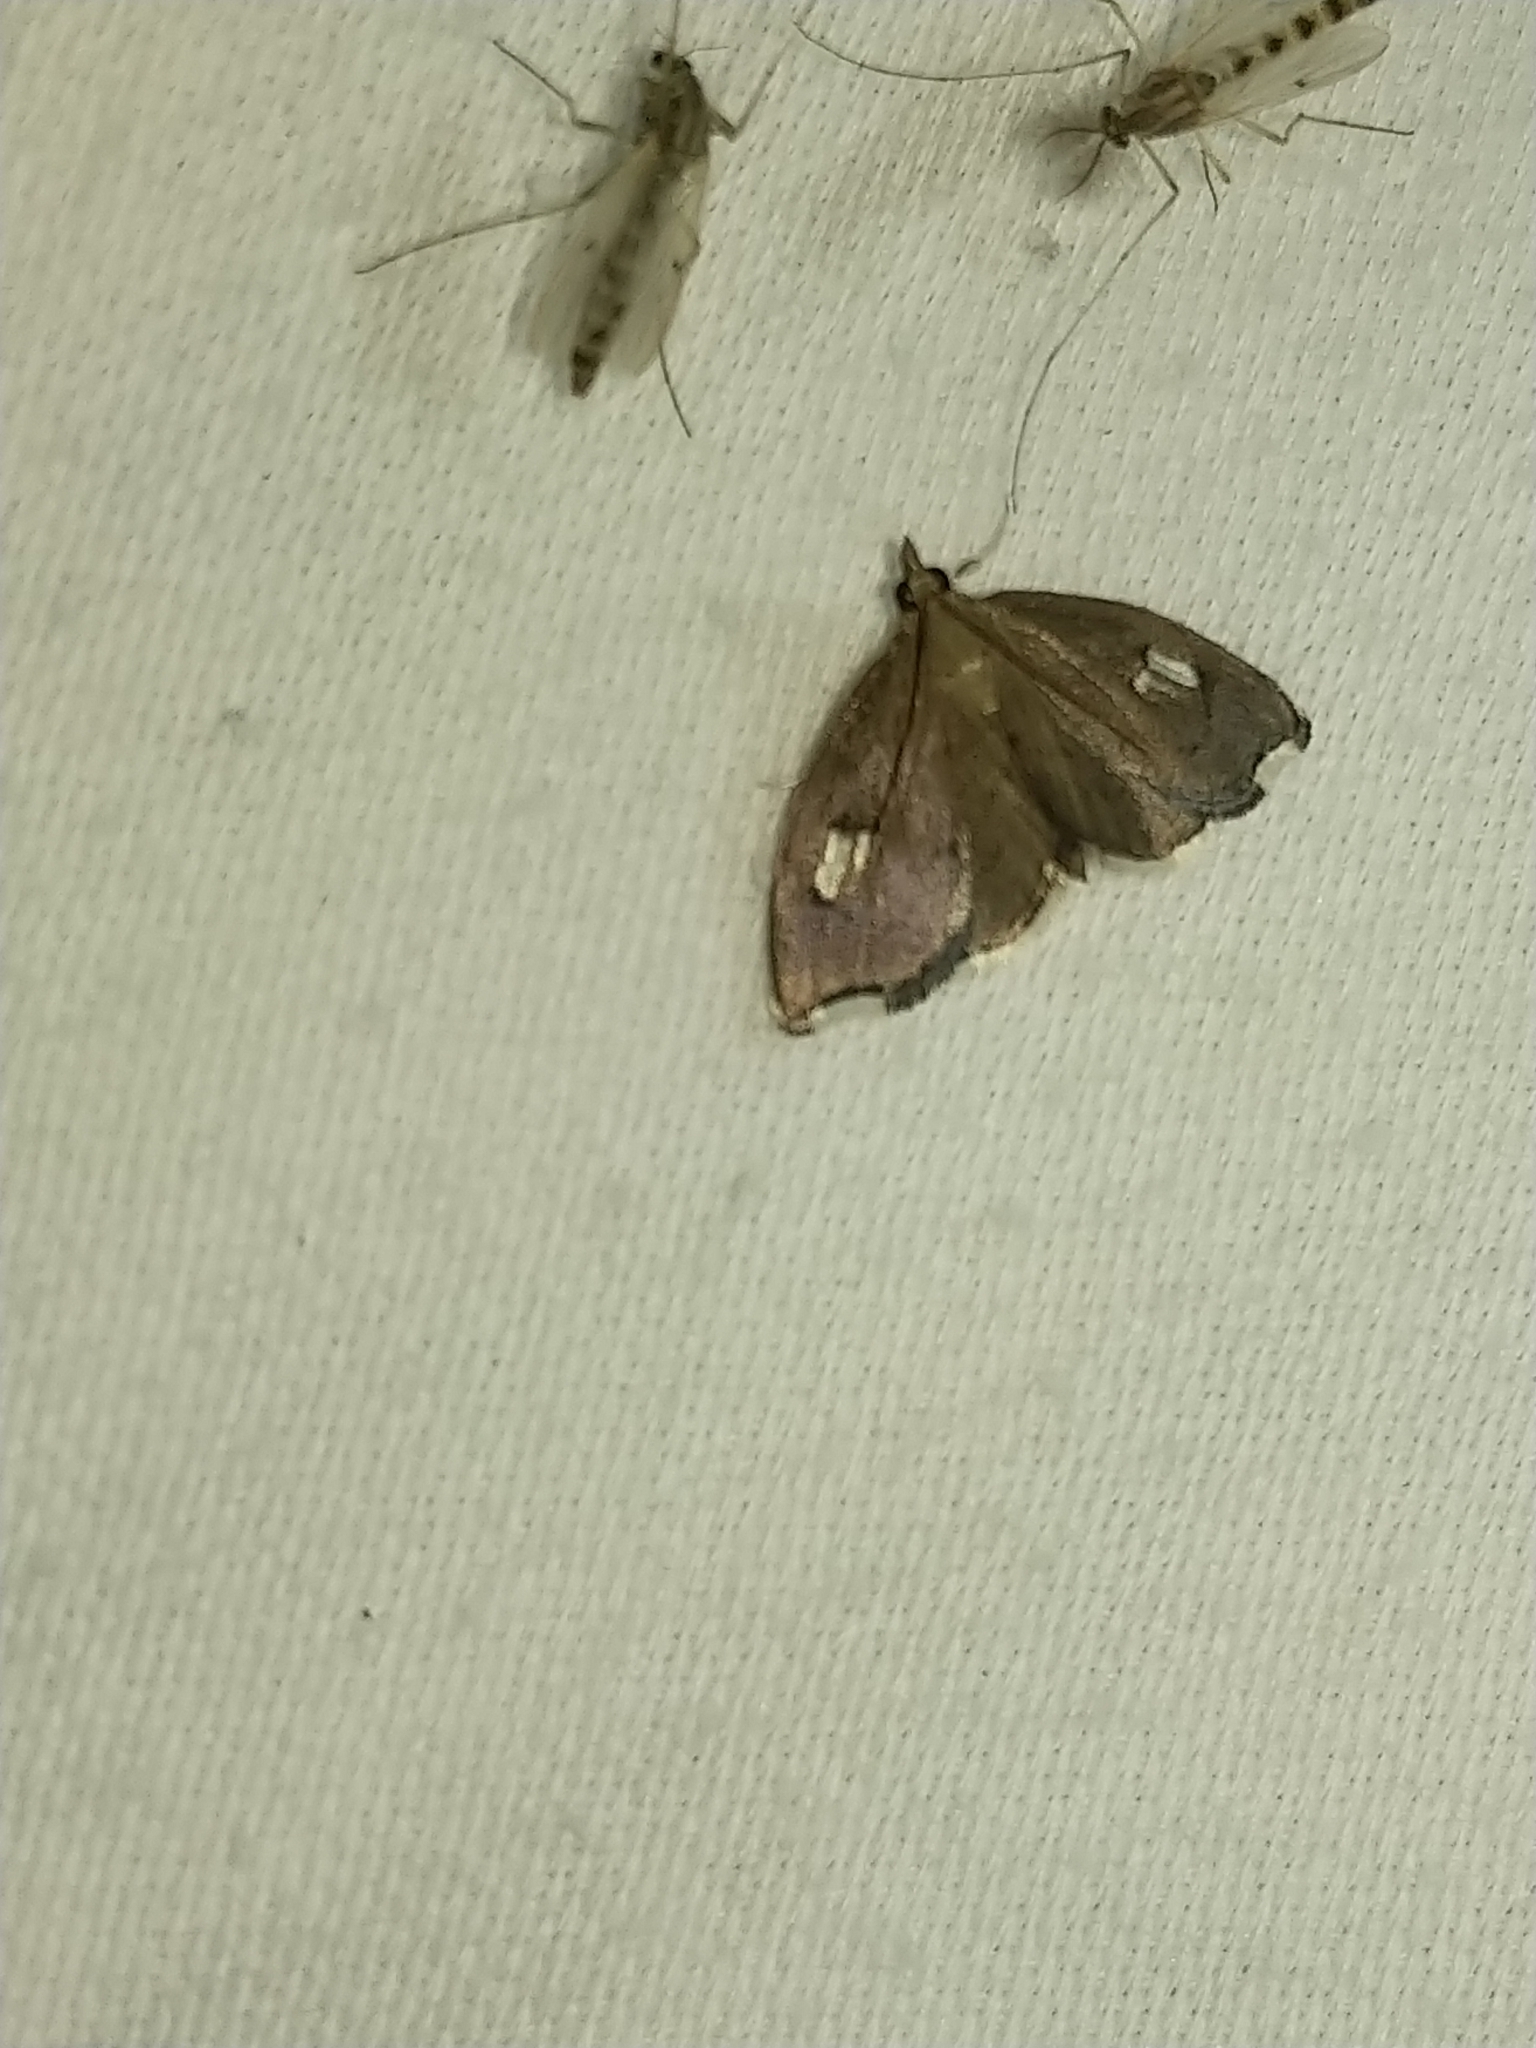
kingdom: Animalia
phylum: Arthropoda
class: Insecta
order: Lepidoptera
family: Crambidae
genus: Perispasta
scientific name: Perispasta caeculalis
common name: Titian peale's moth
